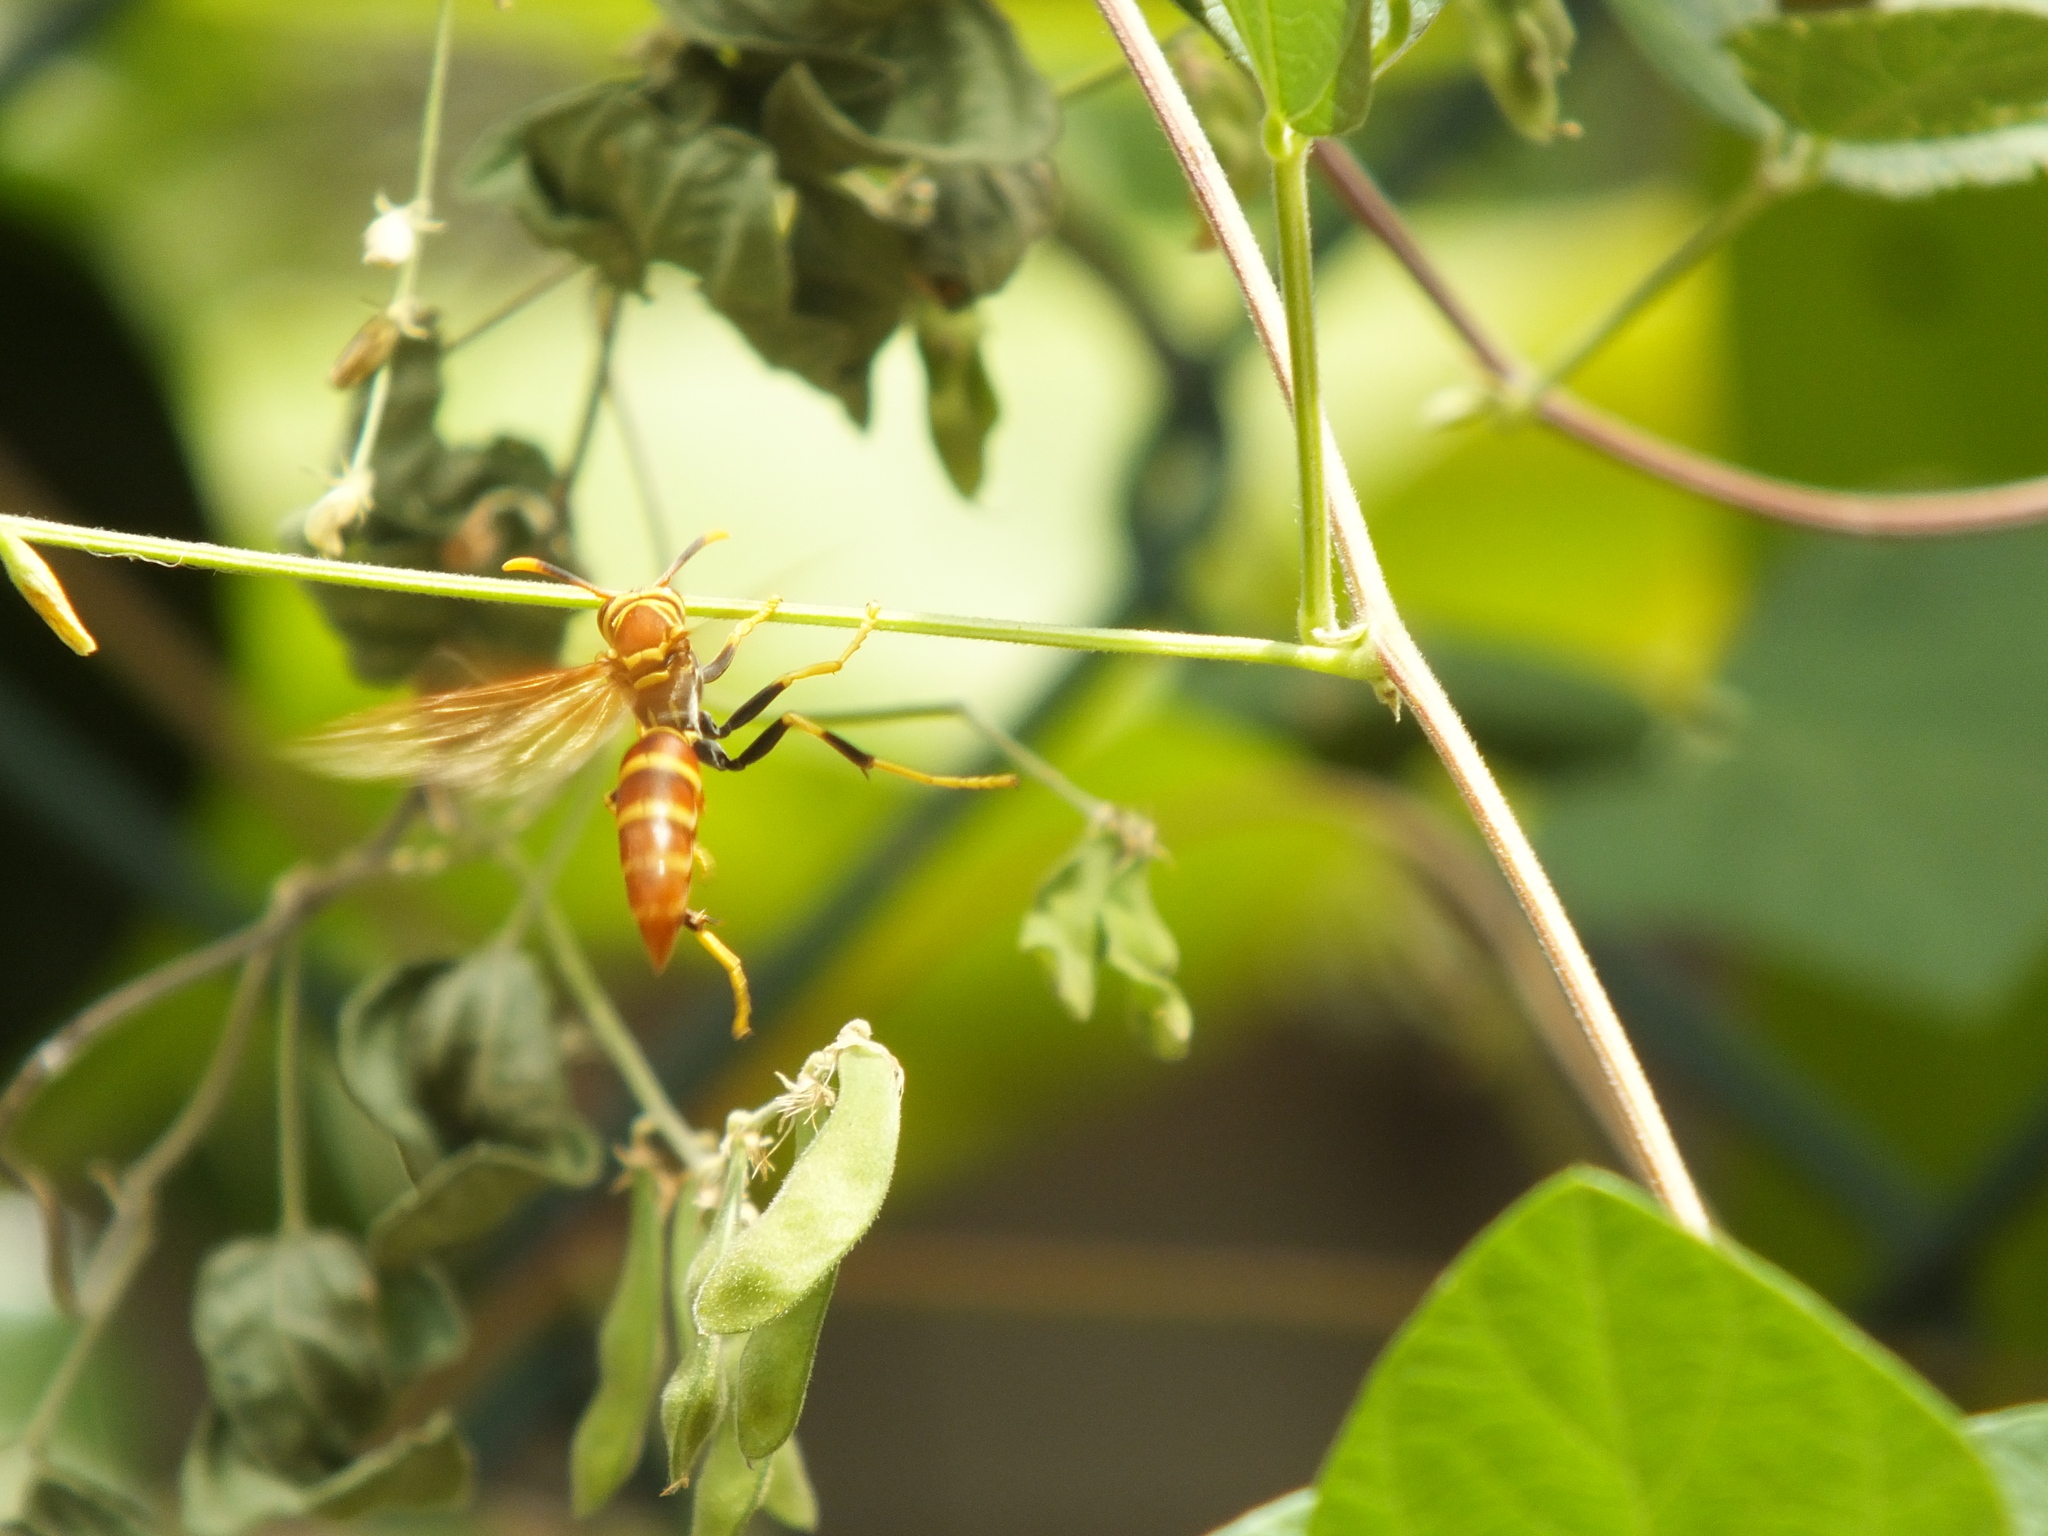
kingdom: Animalia
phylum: Arthropoda
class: Insecta
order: Hymenoptera
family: Eumenidae
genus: Polistes
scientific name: Polistes crinitus
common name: Jack spaniard
